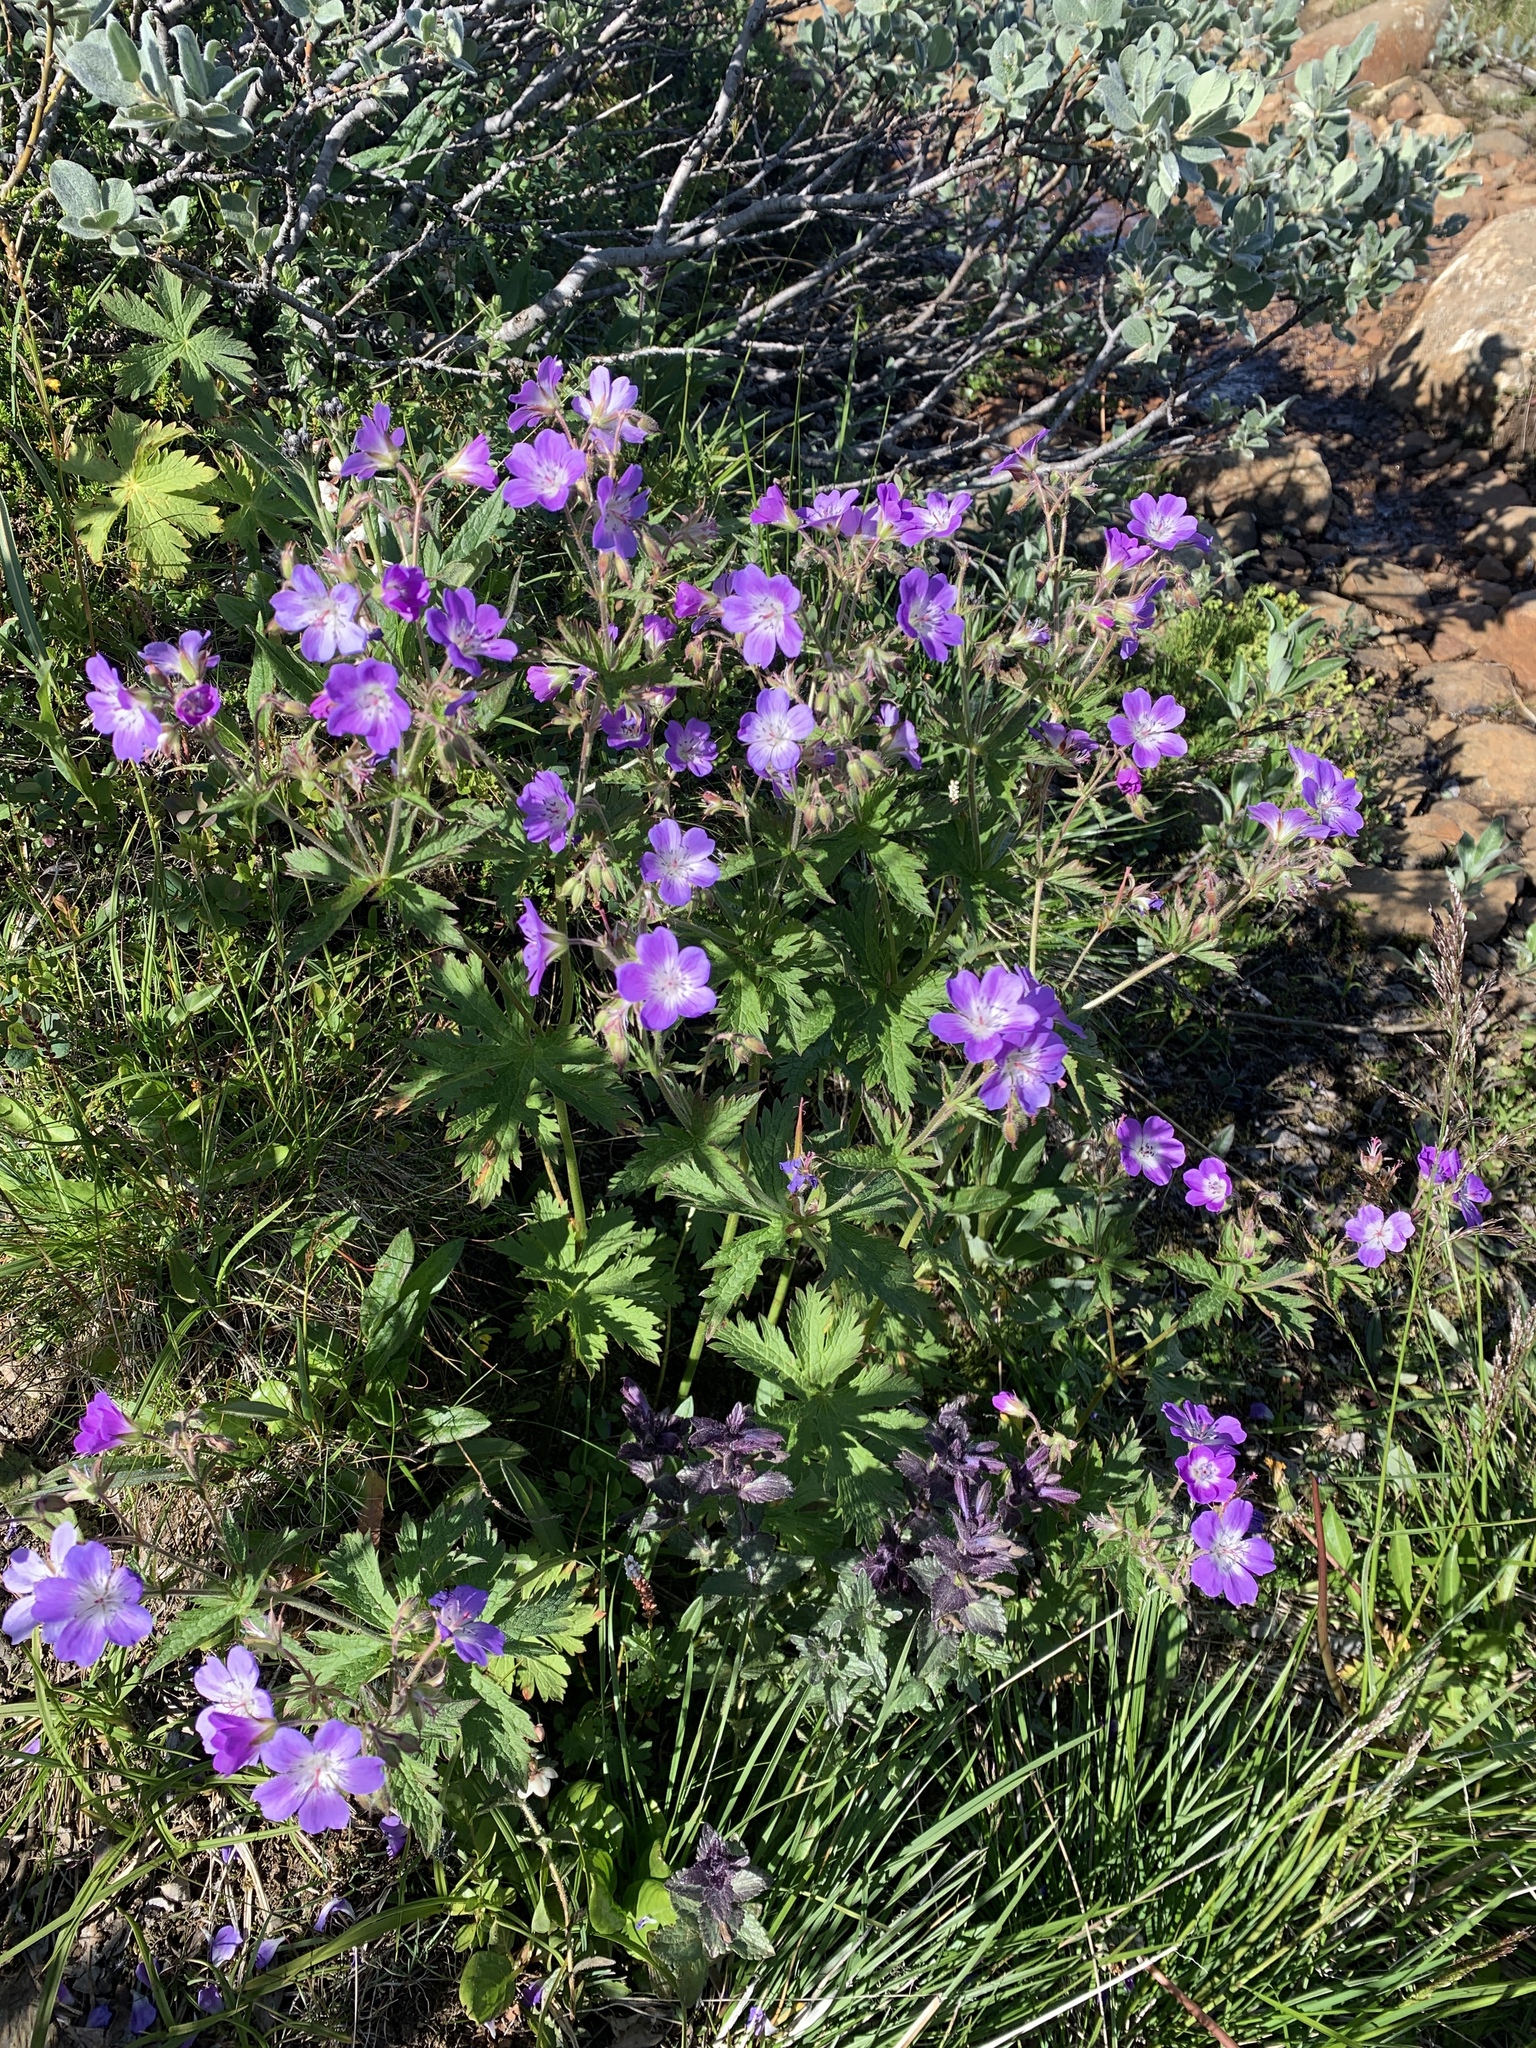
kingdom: Plantae
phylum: Tracheophyta
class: Magnoliopsida
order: Geraniales
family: Geraniaceae
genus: Geranium
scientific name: Geranium sylvaticum
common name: Wood crane's-bill
